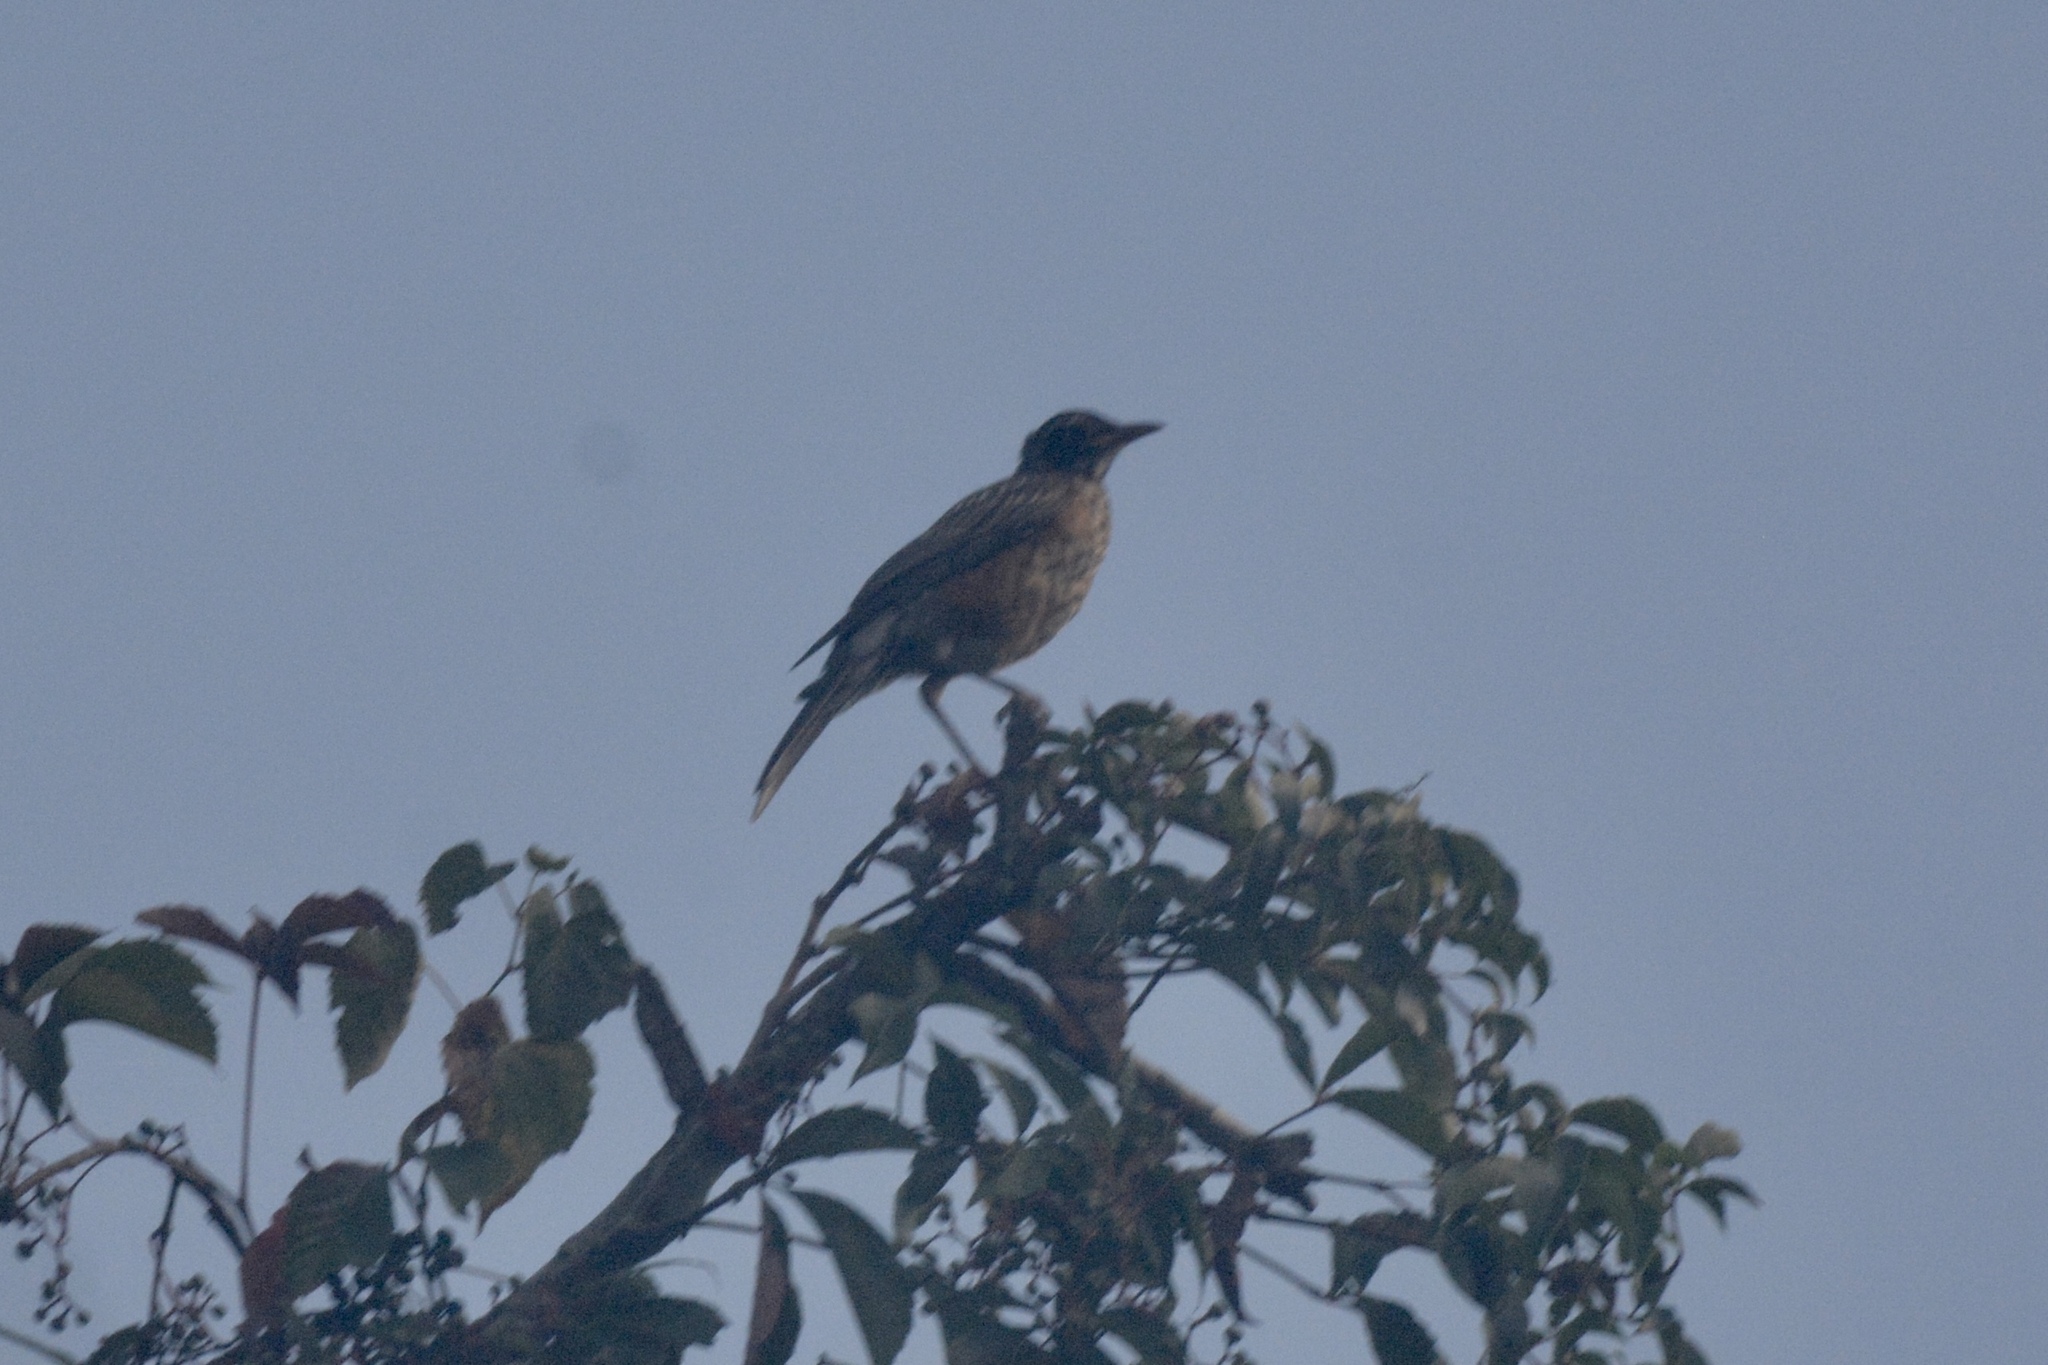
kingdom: Animalia
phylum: Chordata
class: Aves
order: Passeriformes
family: Turdidae
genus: Turdus
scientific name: Turdus migratorius
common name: American robin
